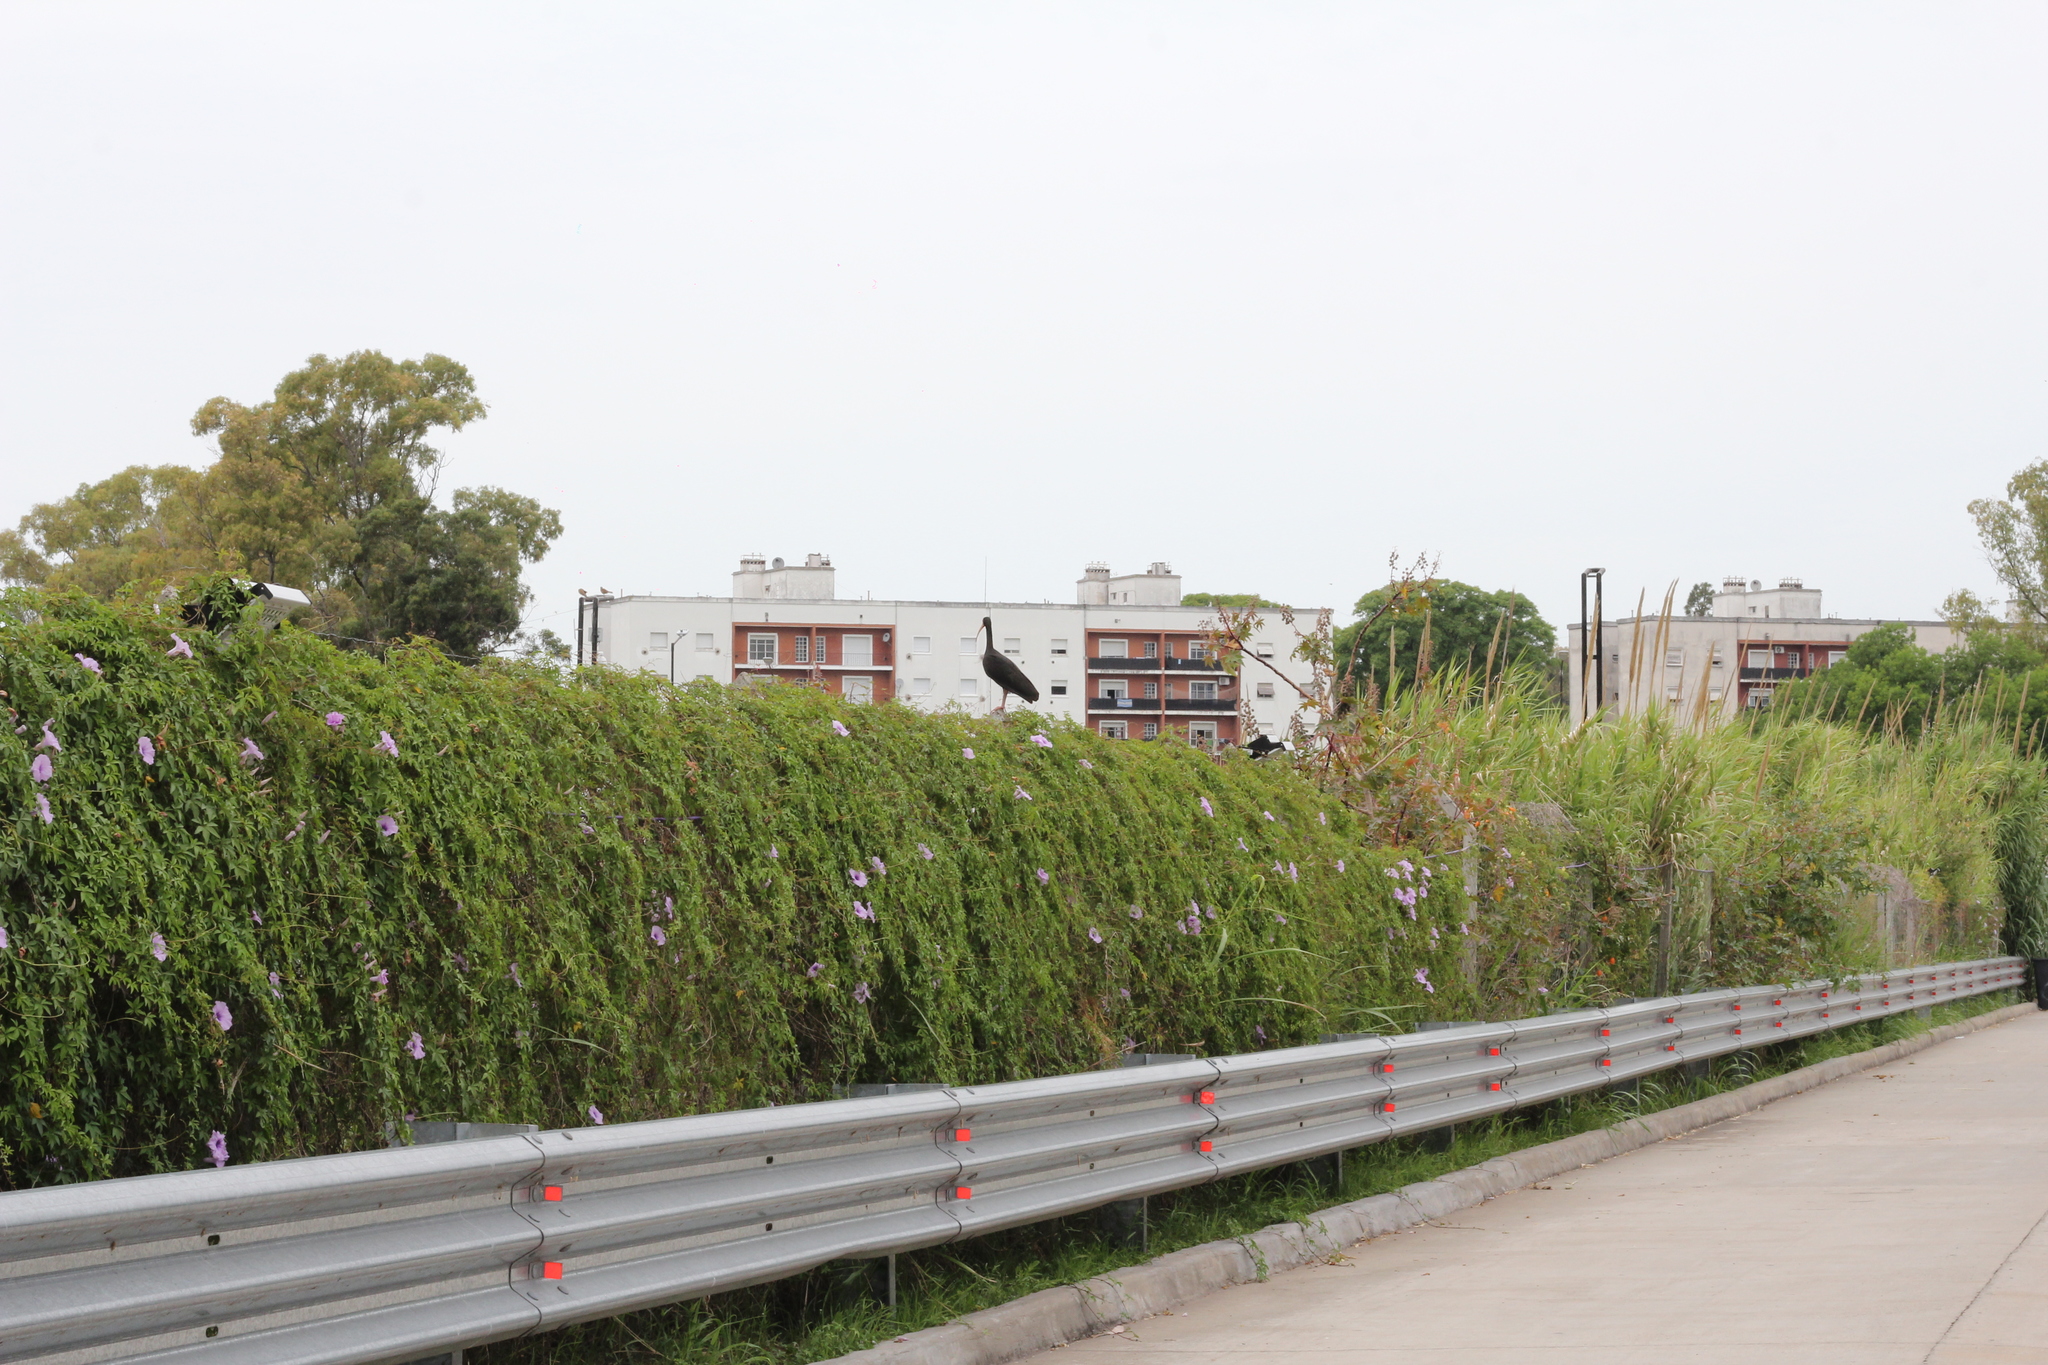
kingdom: Animalia
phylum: Chordata
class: Aves
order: Pelecaniformes
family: Threskiornithidae
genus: Phimosus
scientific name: Phimosus infuscatus
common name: Bare-faced ibis
